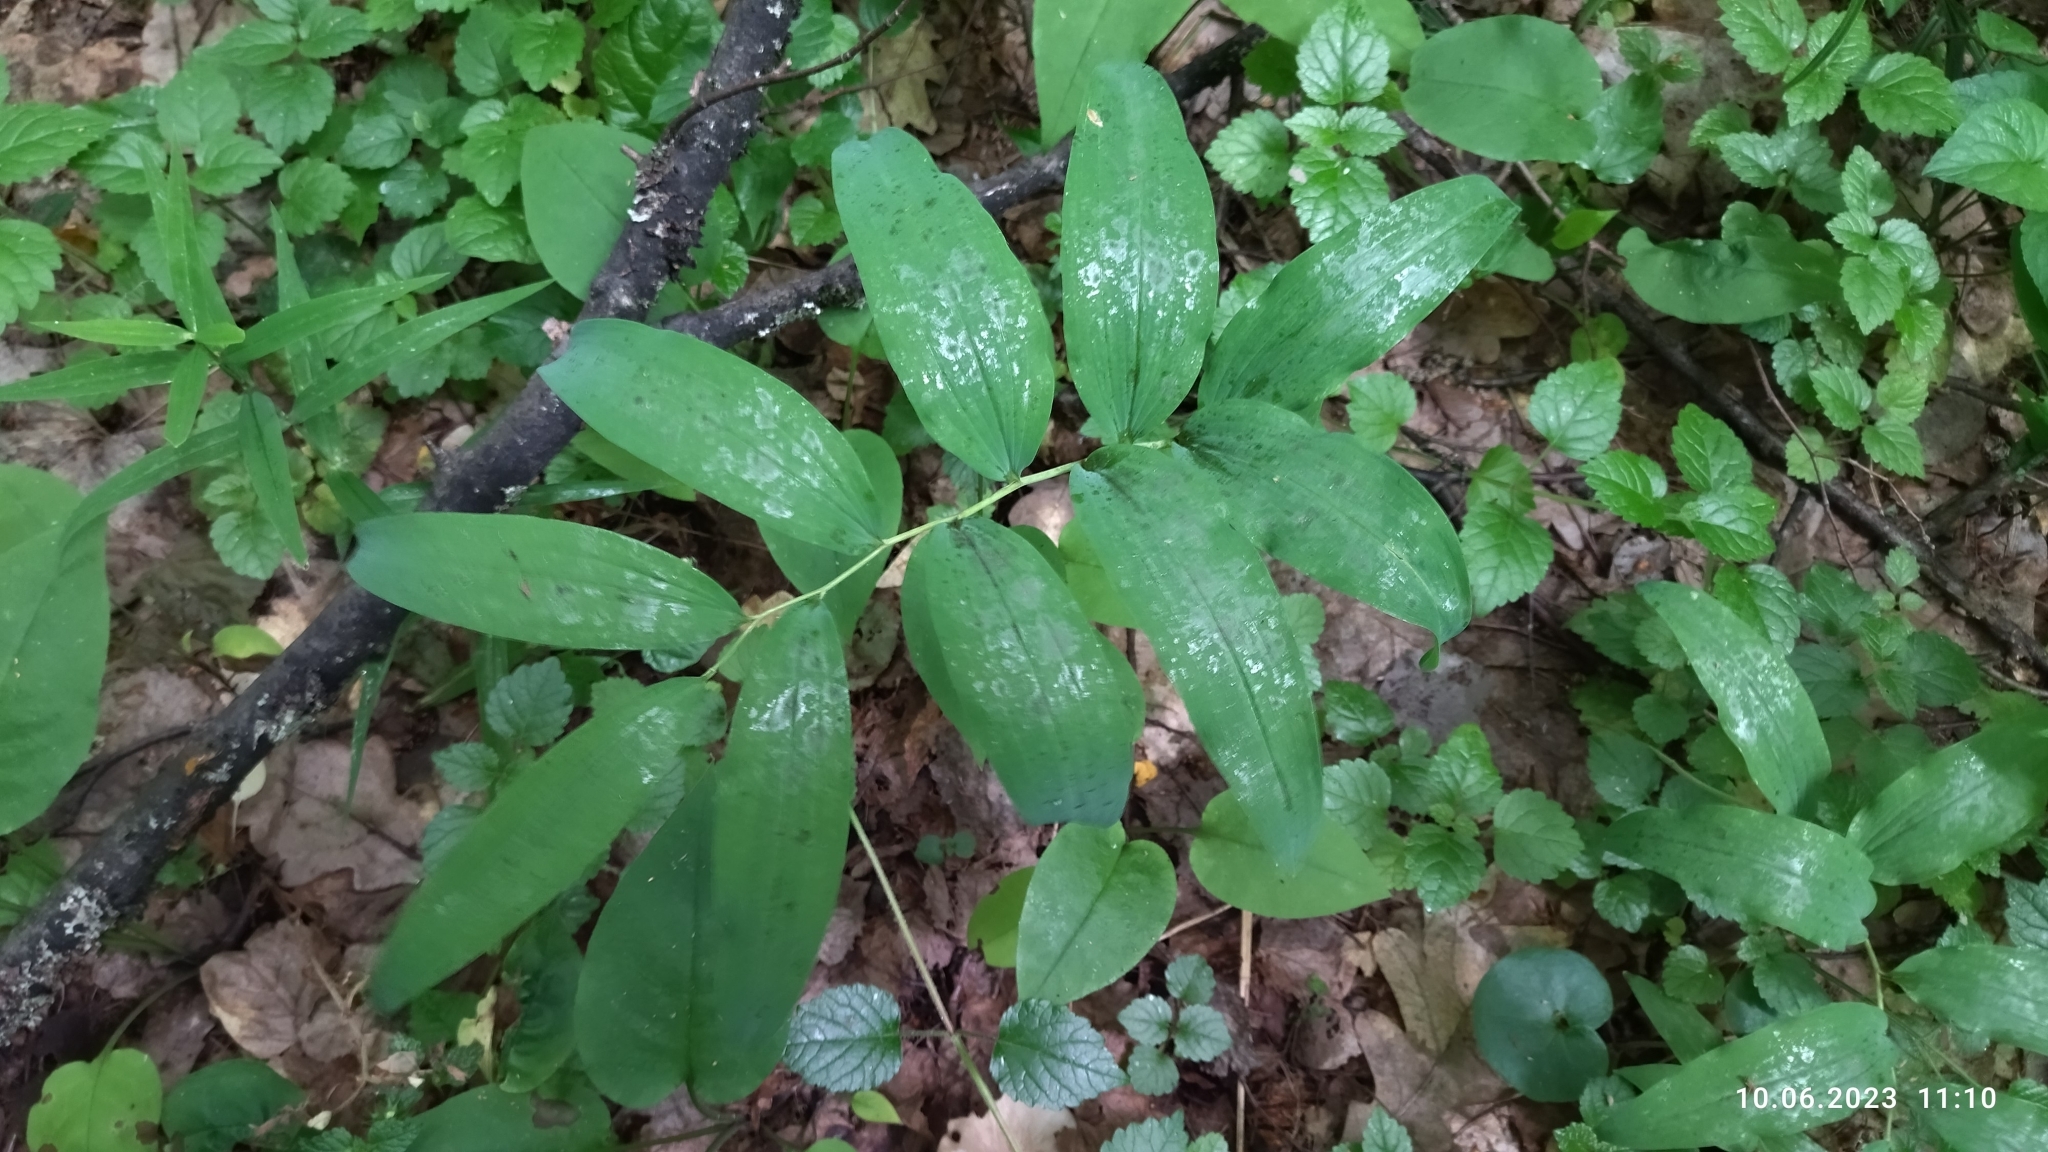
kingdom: Plantae
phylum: Tracheophyta
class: Liliopsida
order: Asparagales
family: Asparagaceae
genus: Polygonatum
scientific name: Polygonatum multiflorum
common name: Solomon's-seal
